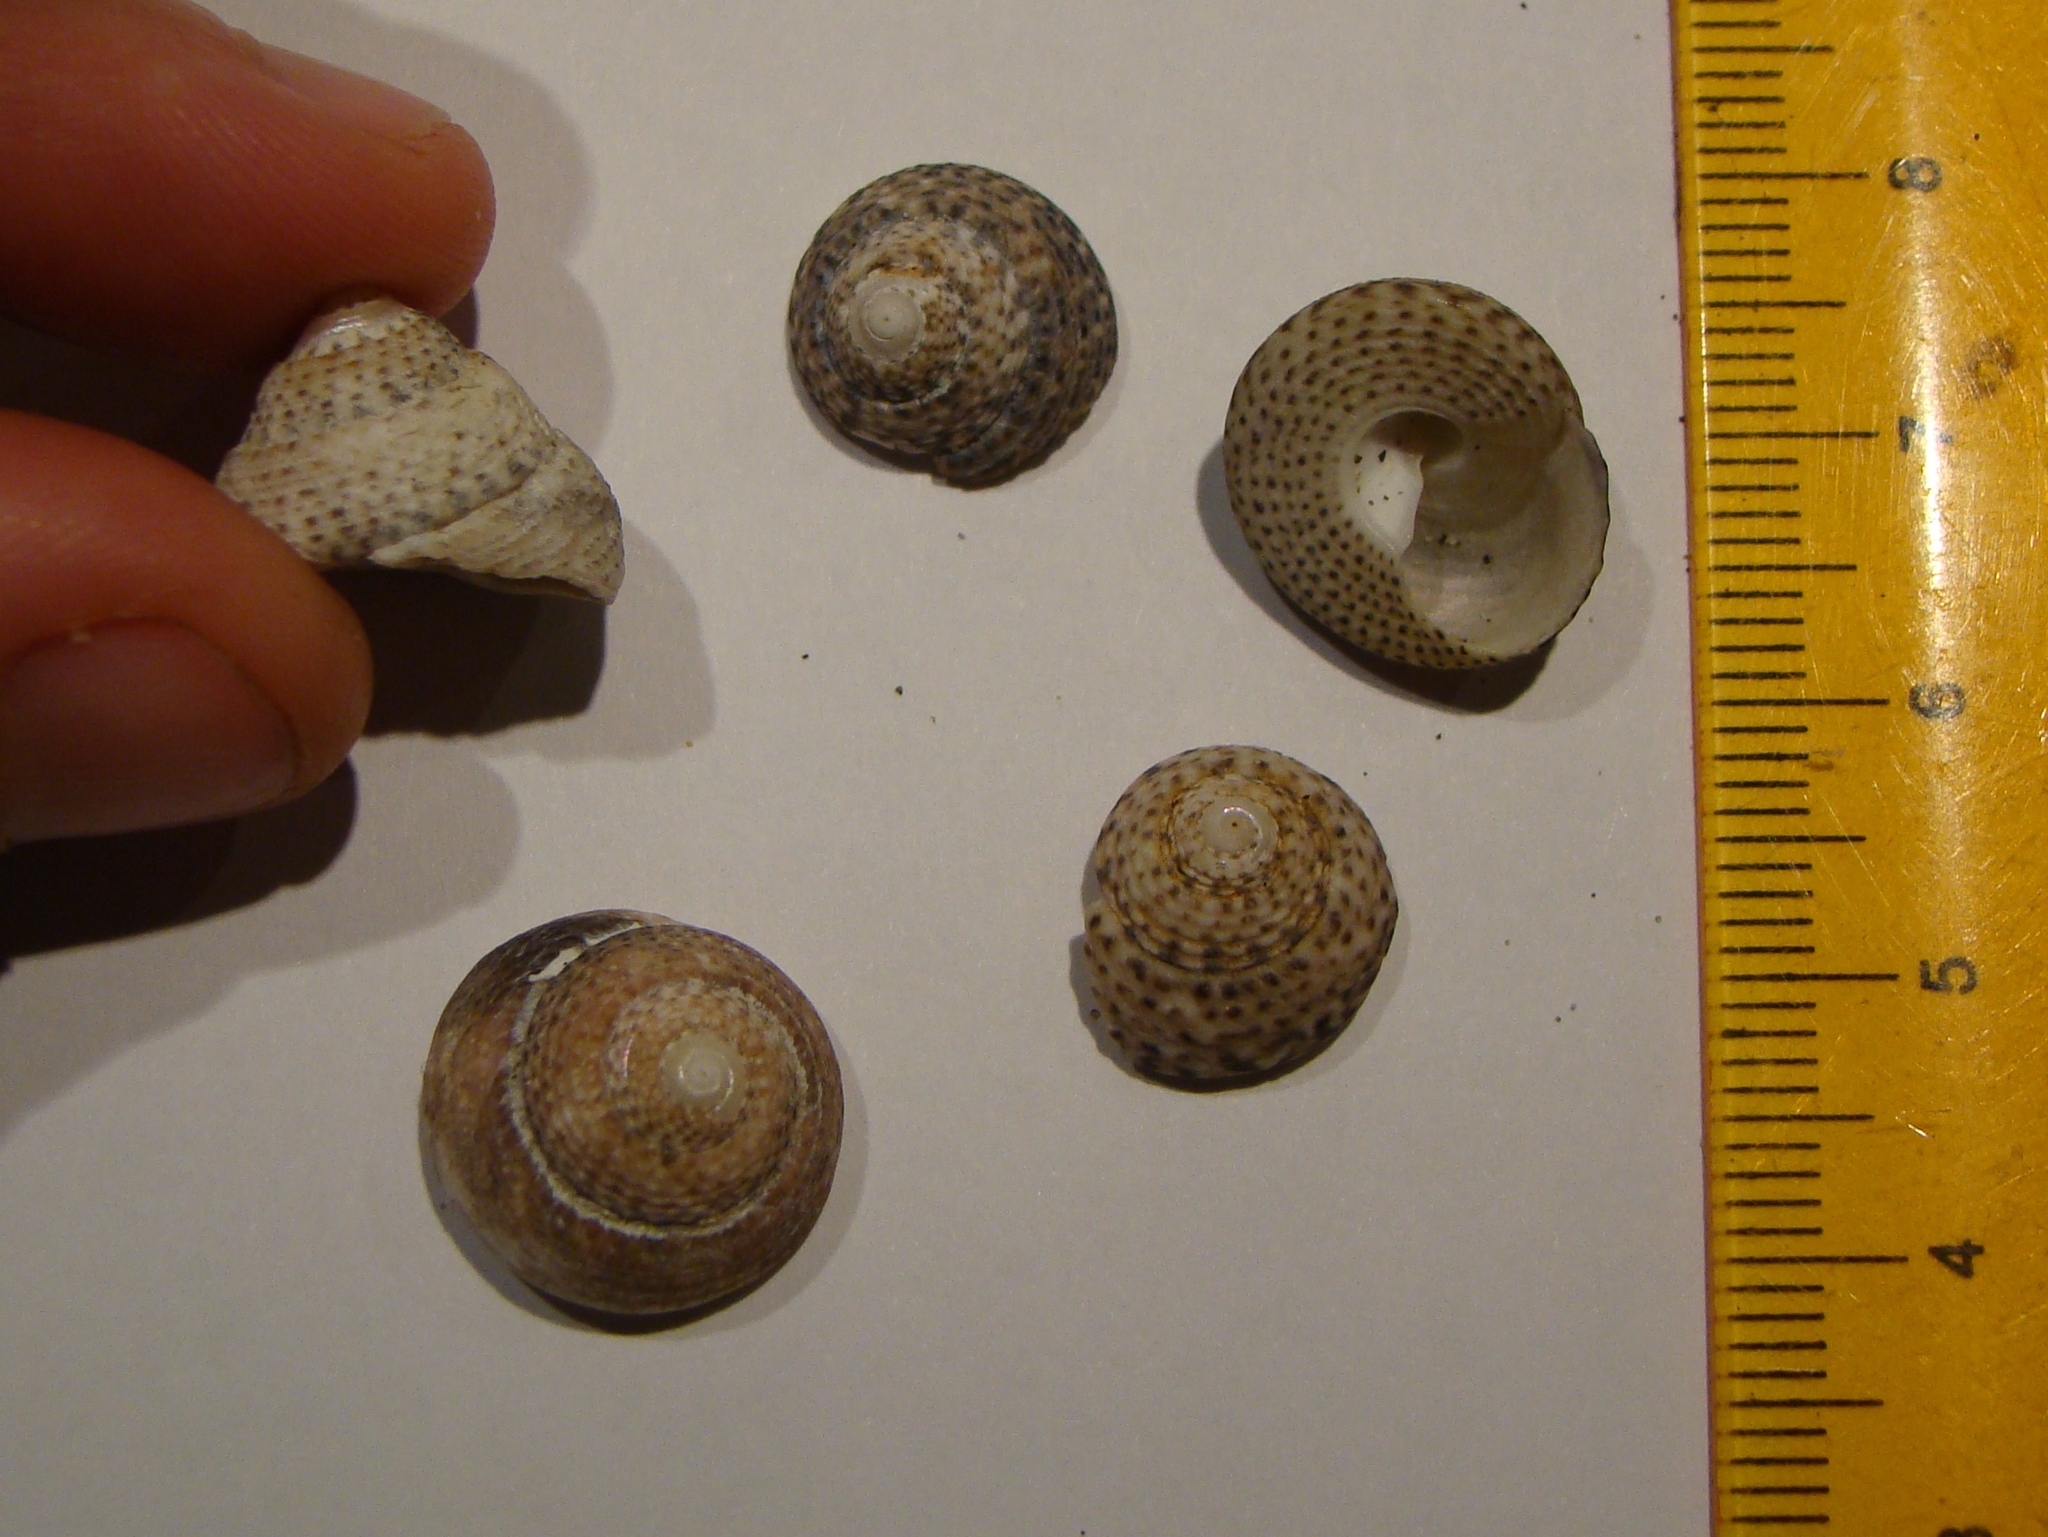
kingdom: Animalia
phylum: Mollusca
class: Gastropoda
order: Trochida
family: Trochidae
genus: Coelotrochus
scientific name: Coelotrochus tiaratus
